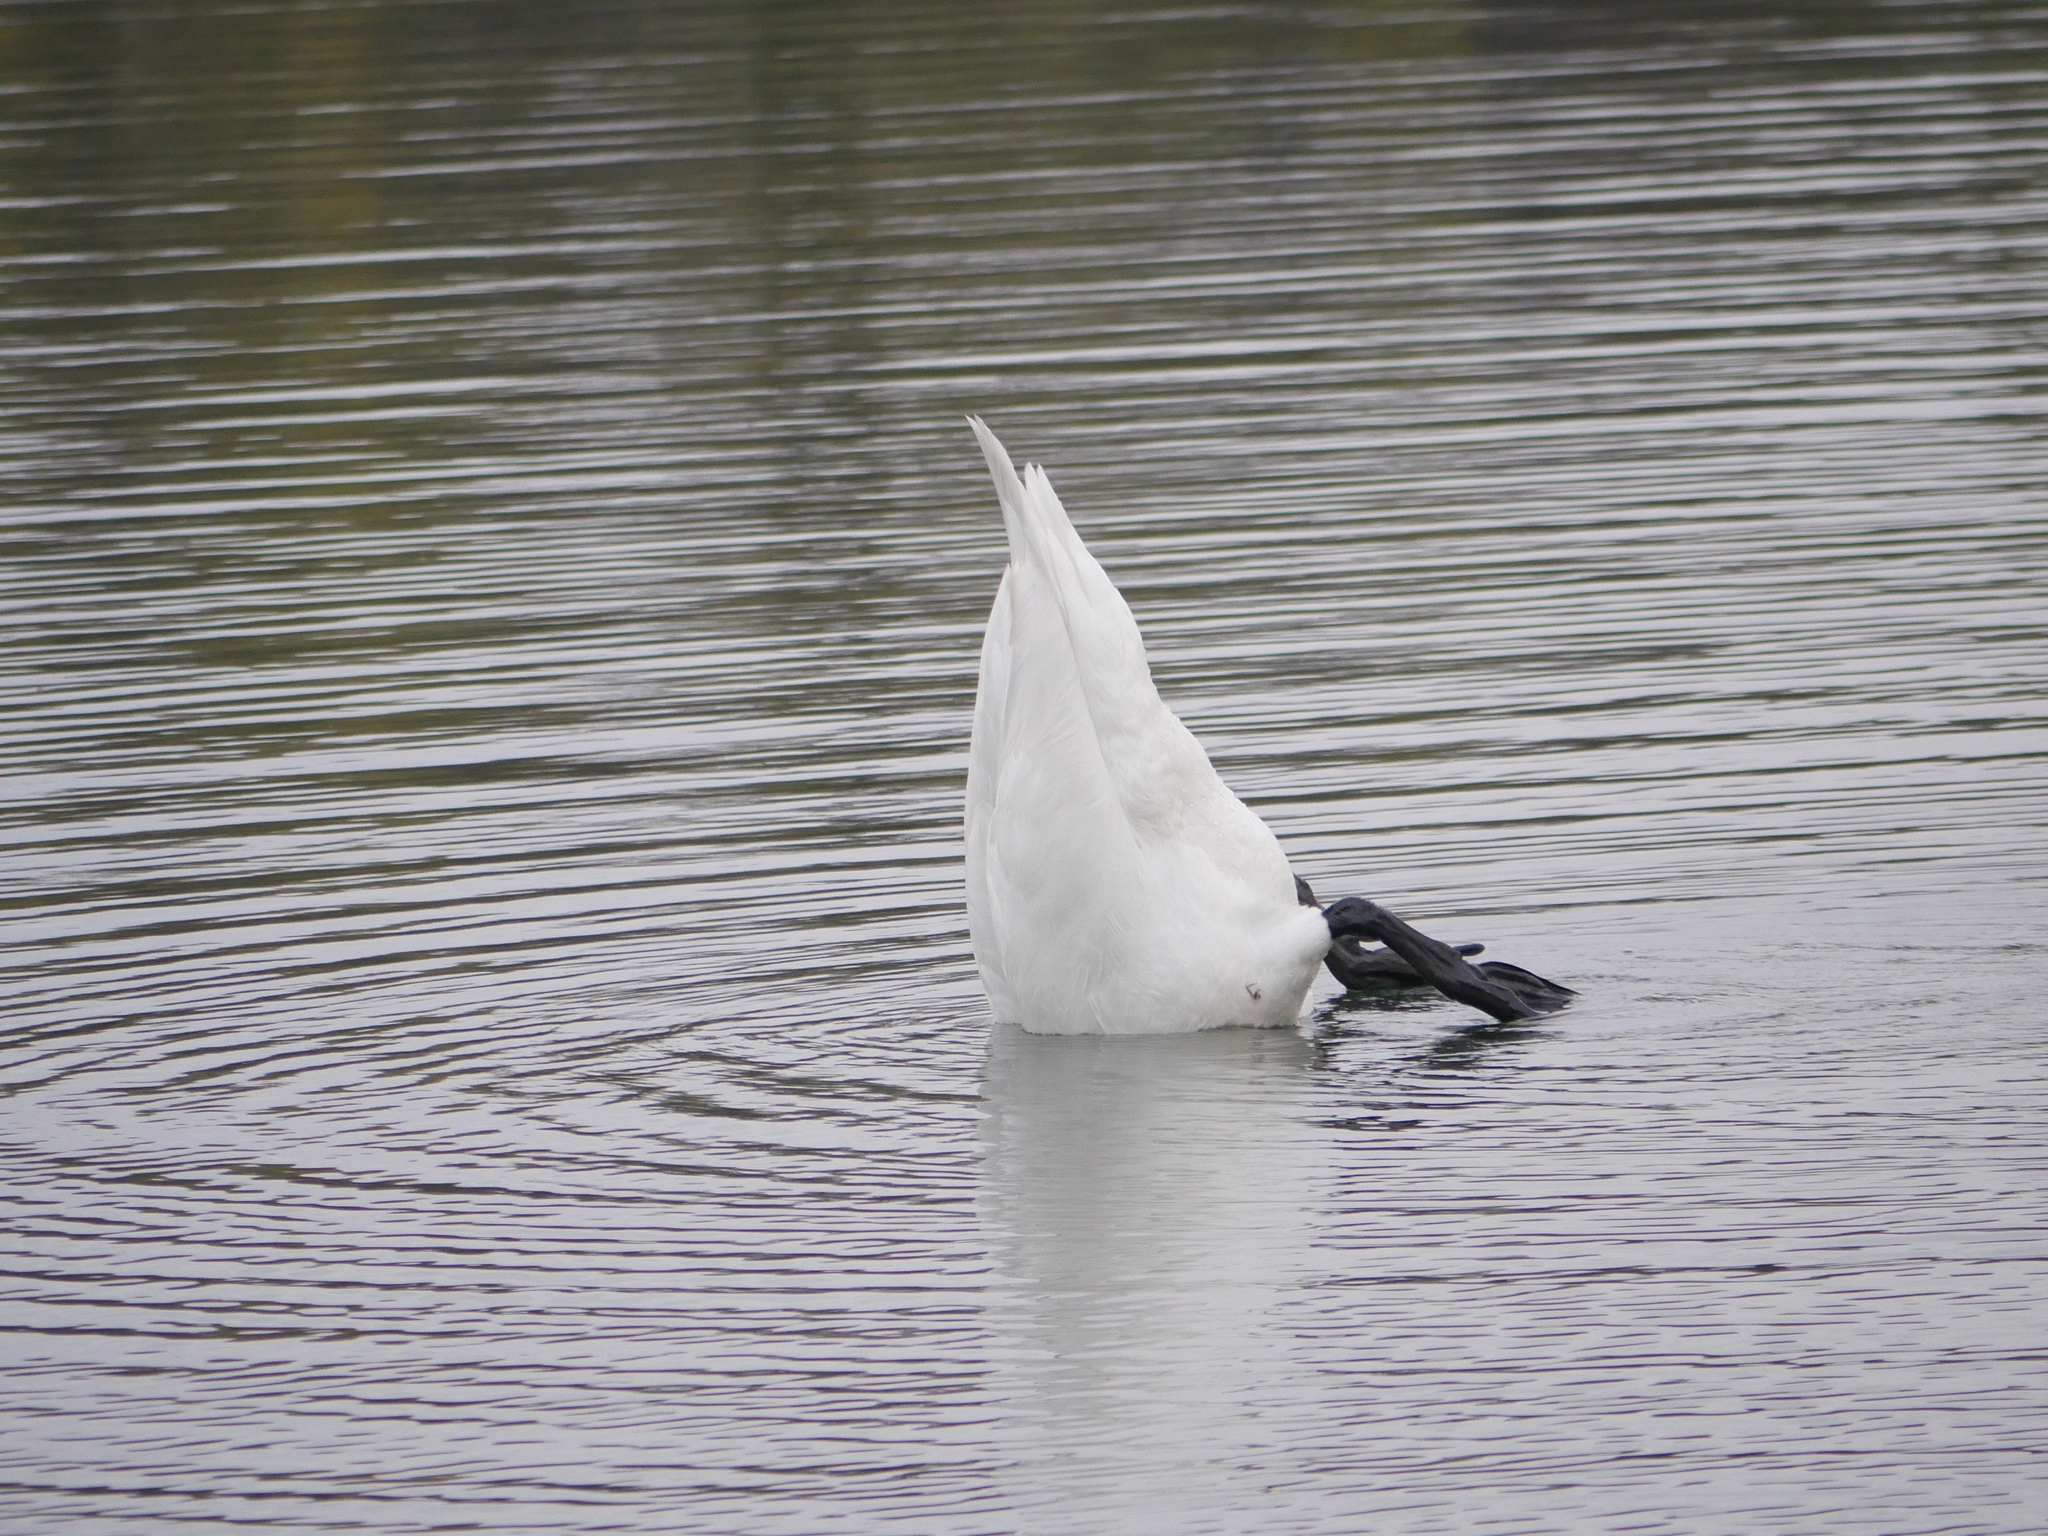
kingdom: Animalia
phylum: Chordata
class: Aves
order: Anseriformes
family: Anatidae
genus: Cygnus
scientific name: Cygnus olor
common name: Mute swan
